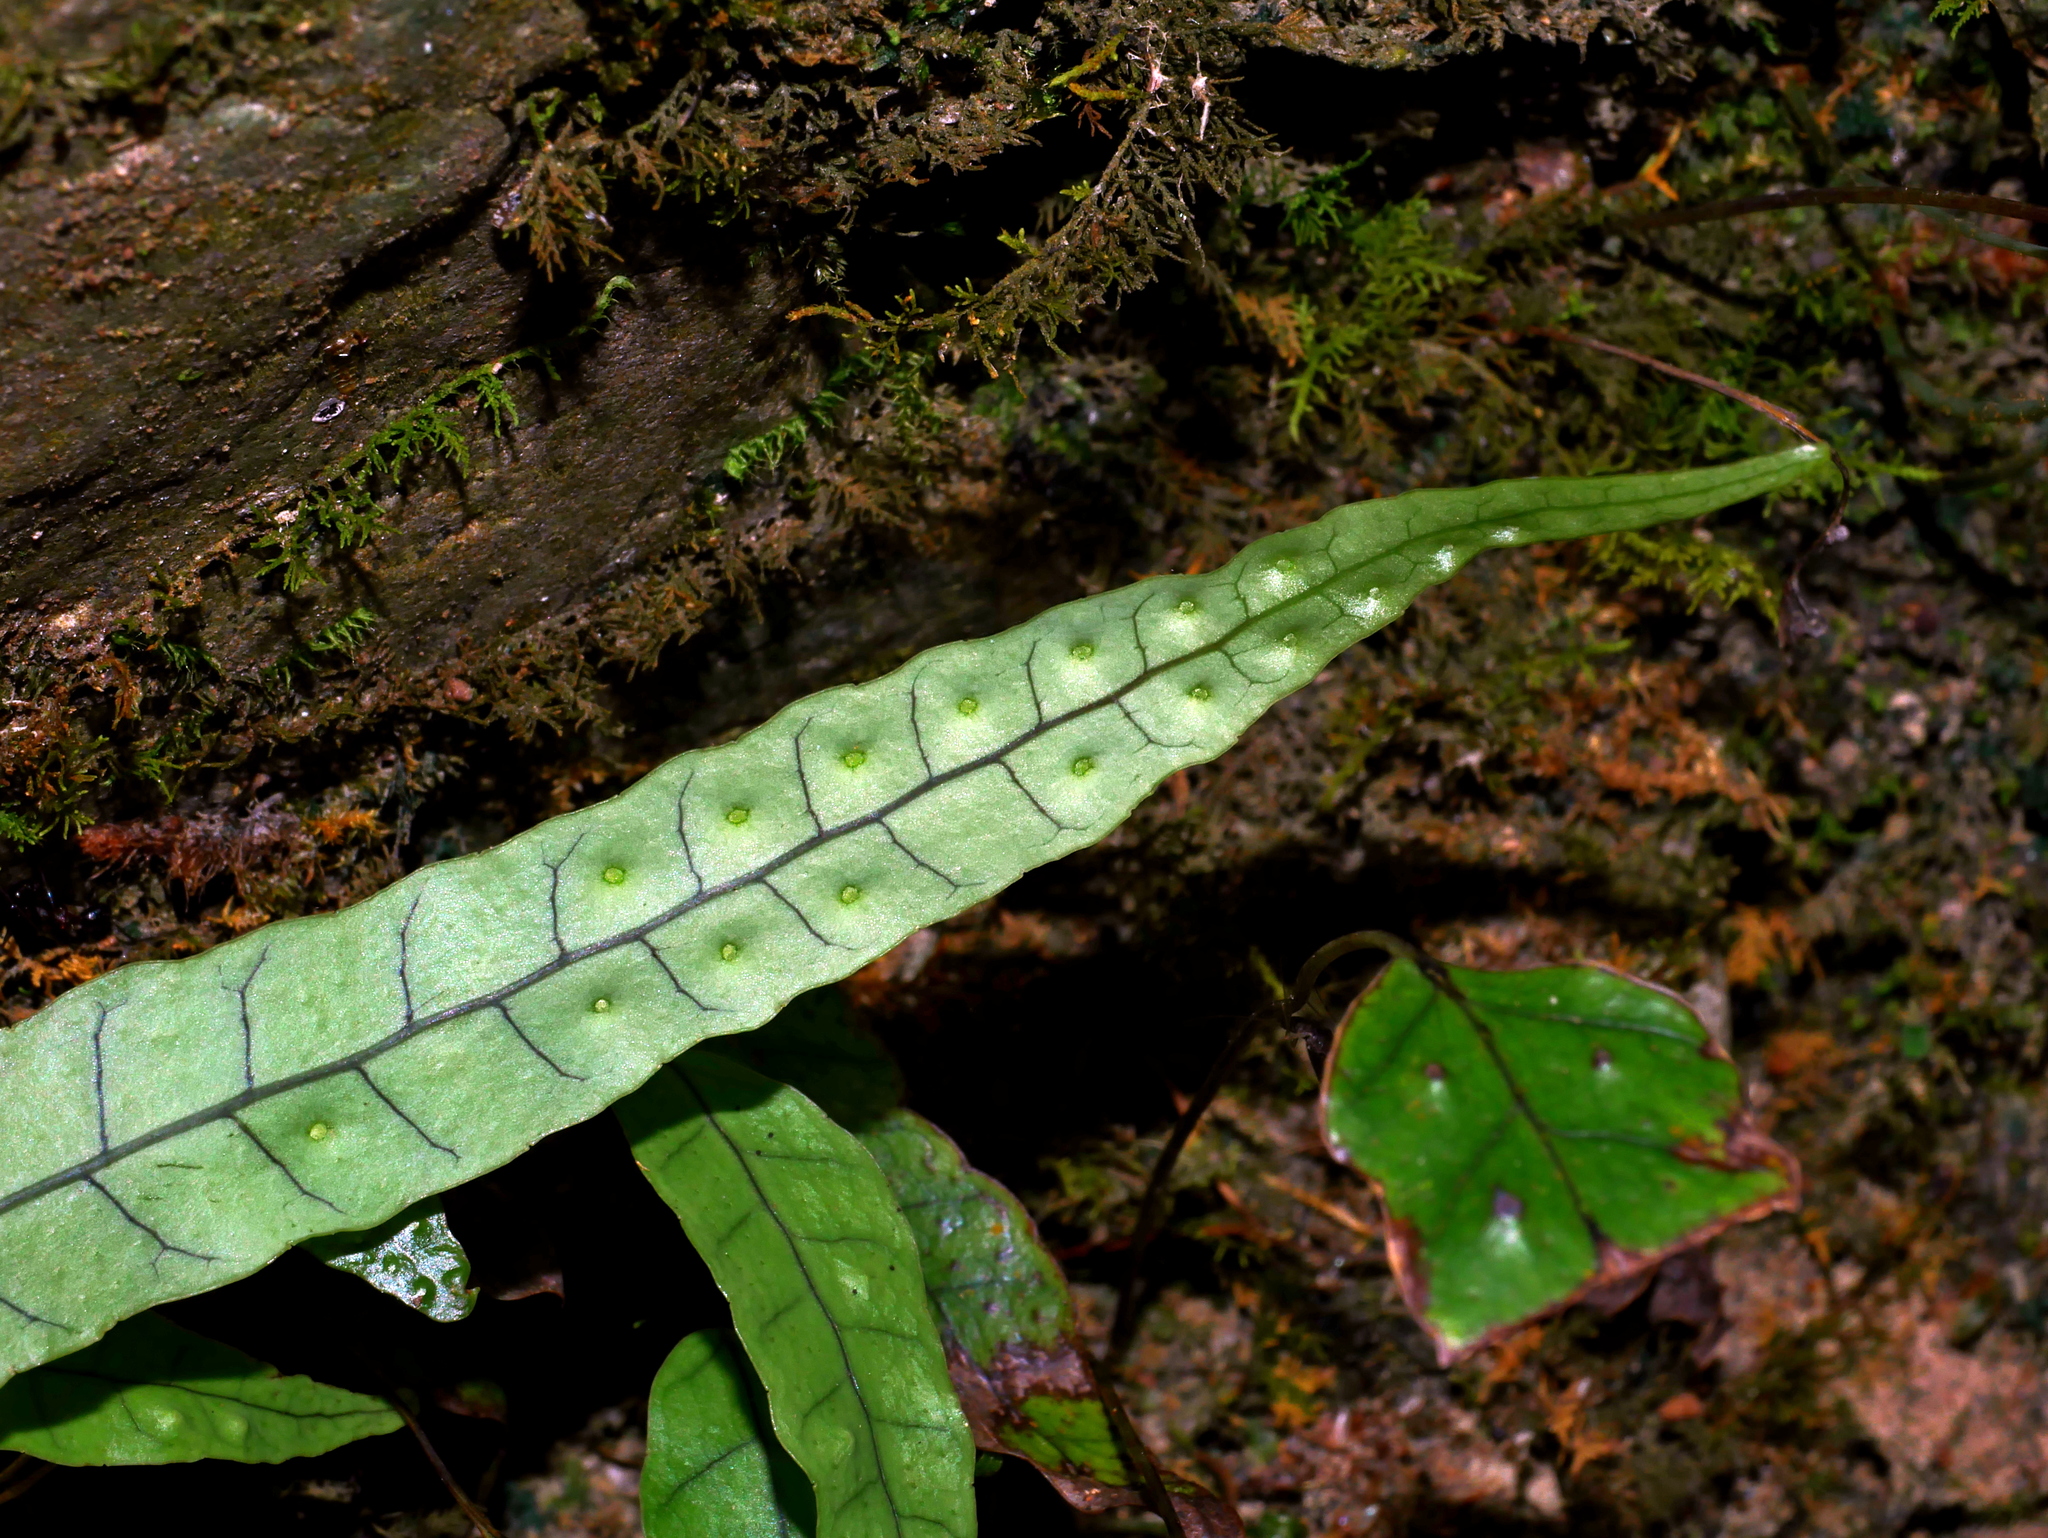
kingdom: Plantae
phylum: Tracheophyta
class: Polypodiopsida
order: Polypodiales
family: Polypodiaceae
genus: Selliguea
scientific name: Selliguea yakushimensis
